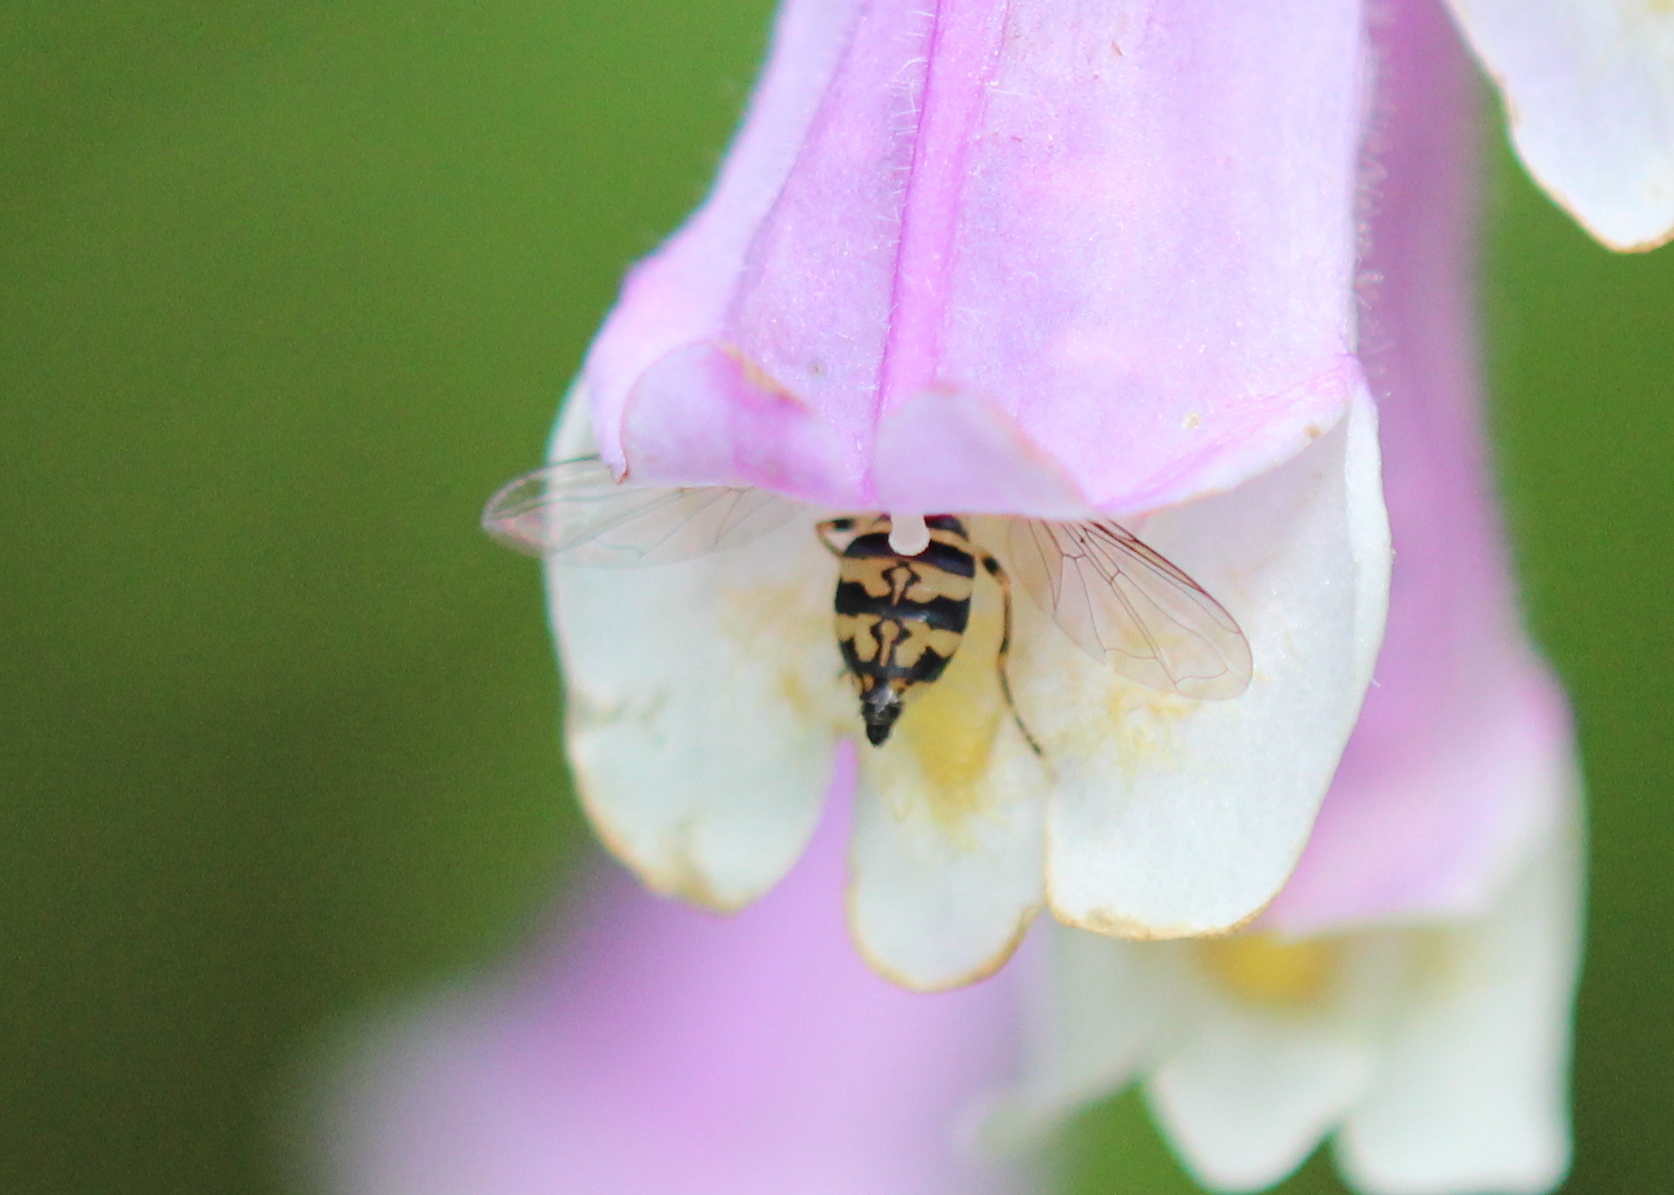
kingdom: Animalia
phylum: Arthropoda
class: Insecta
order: Diptera
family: Syrphidae
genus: Toxomerus
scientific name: Toxomerus geminatus
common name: Eastern calligrapher
